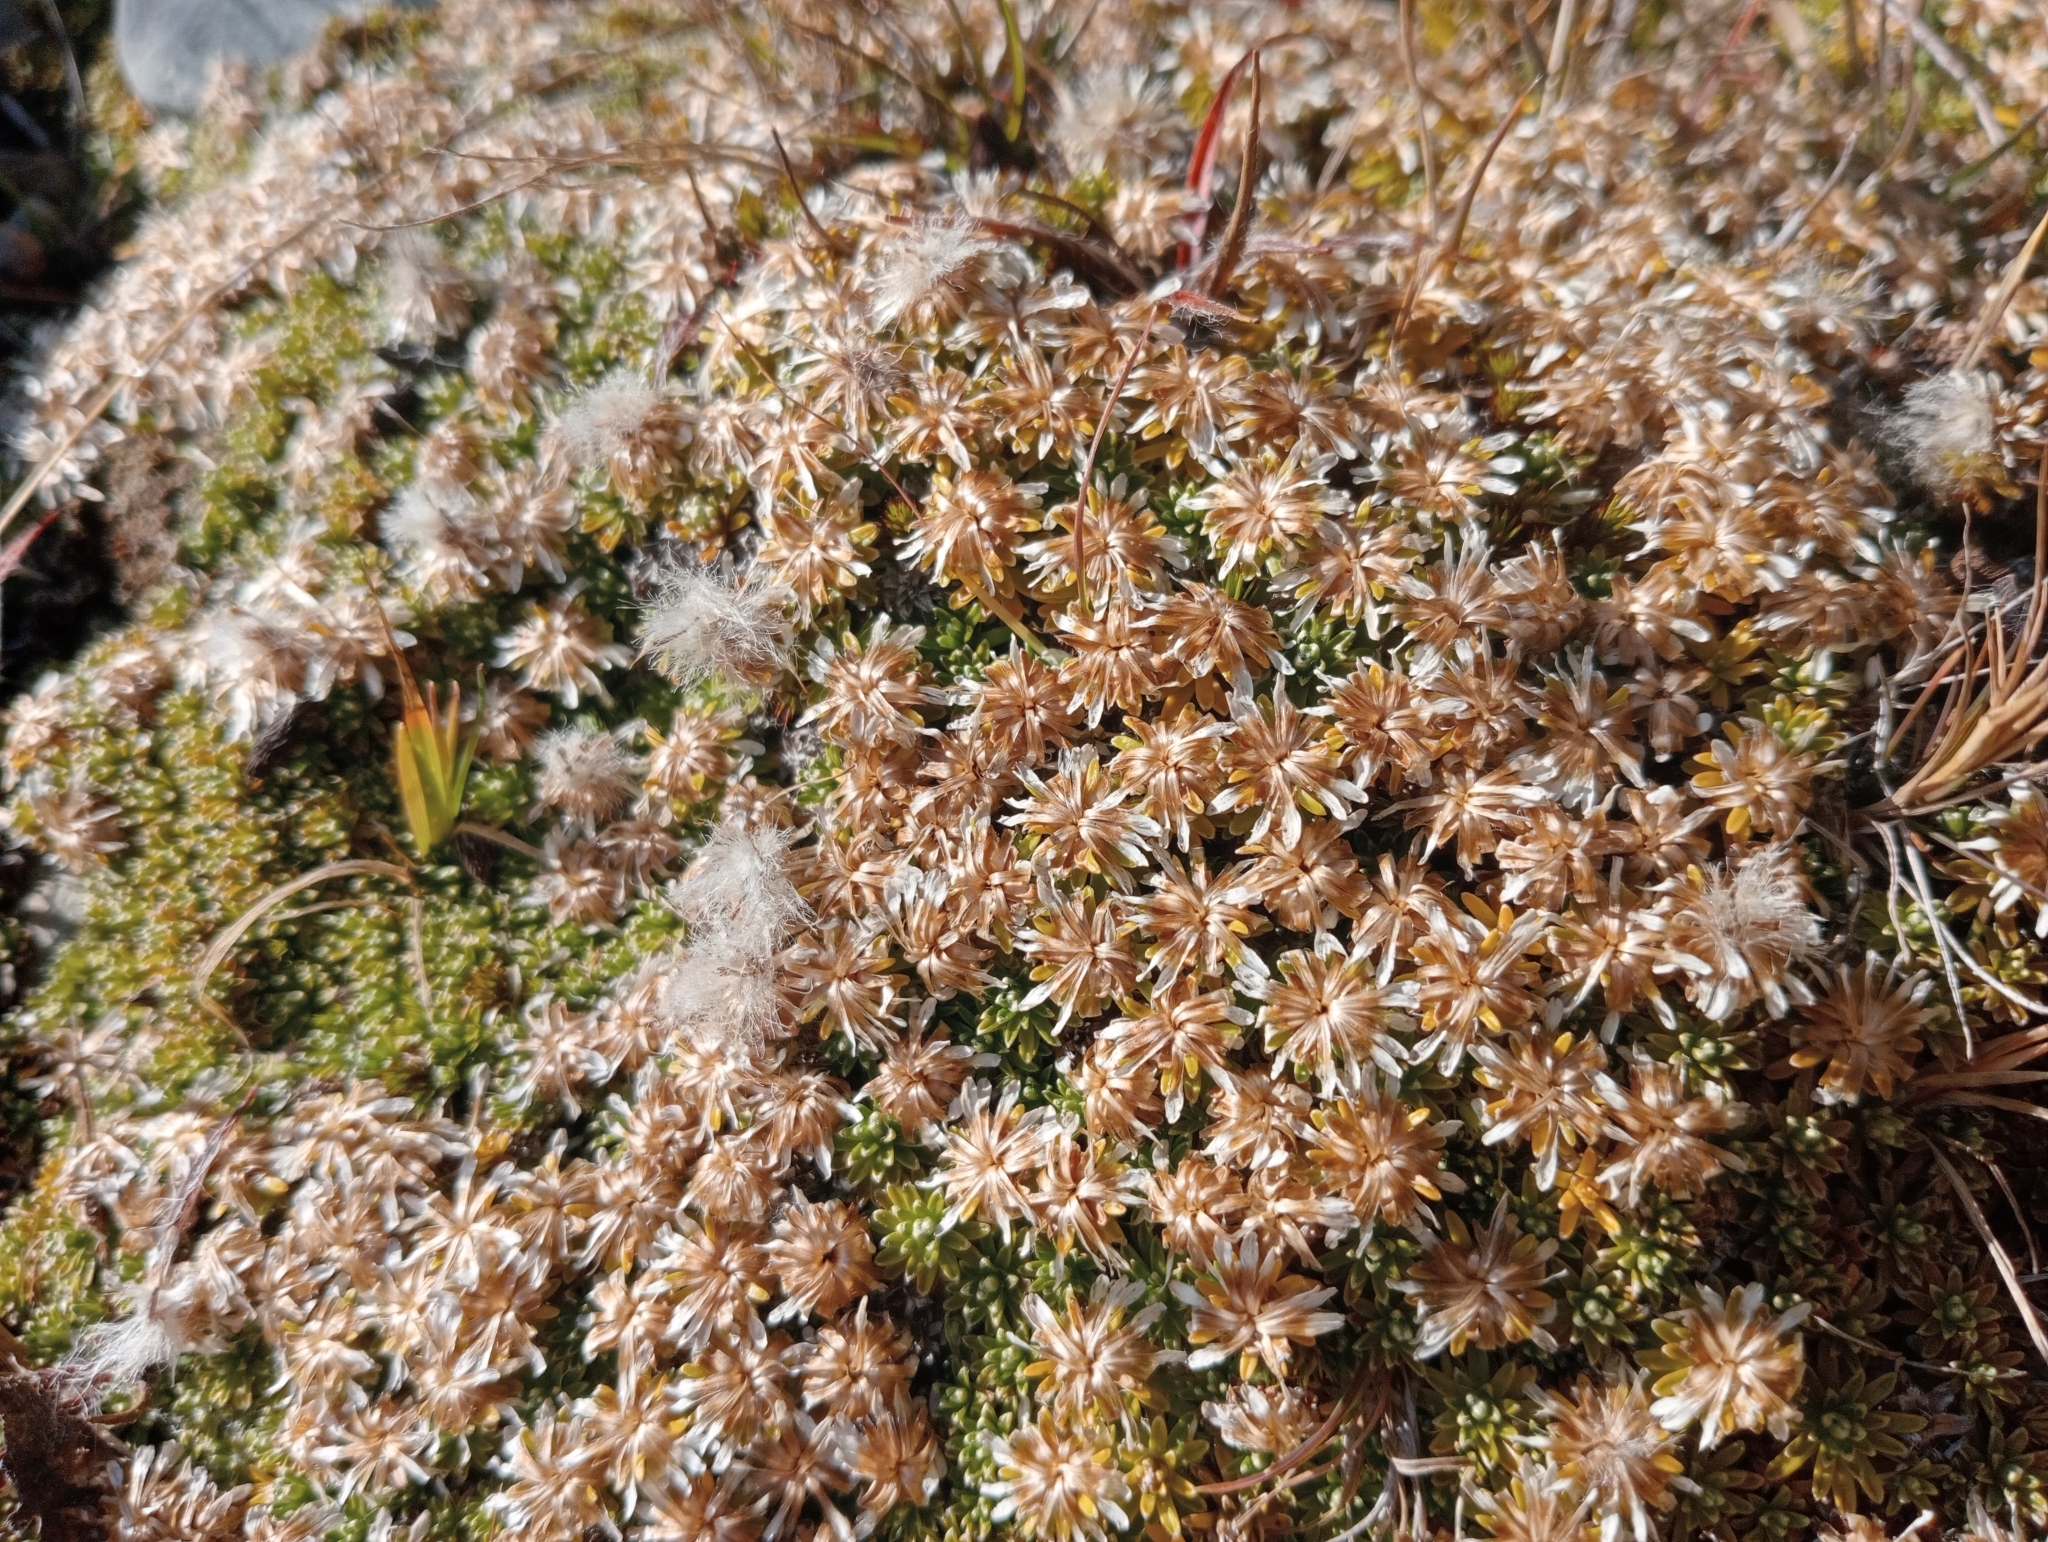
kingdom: Plantae
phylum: Tracheophyta
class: Magnoliopsida
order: Asterales
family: Asteraceae
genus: Raoulia
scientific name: Raoulia subsericea
